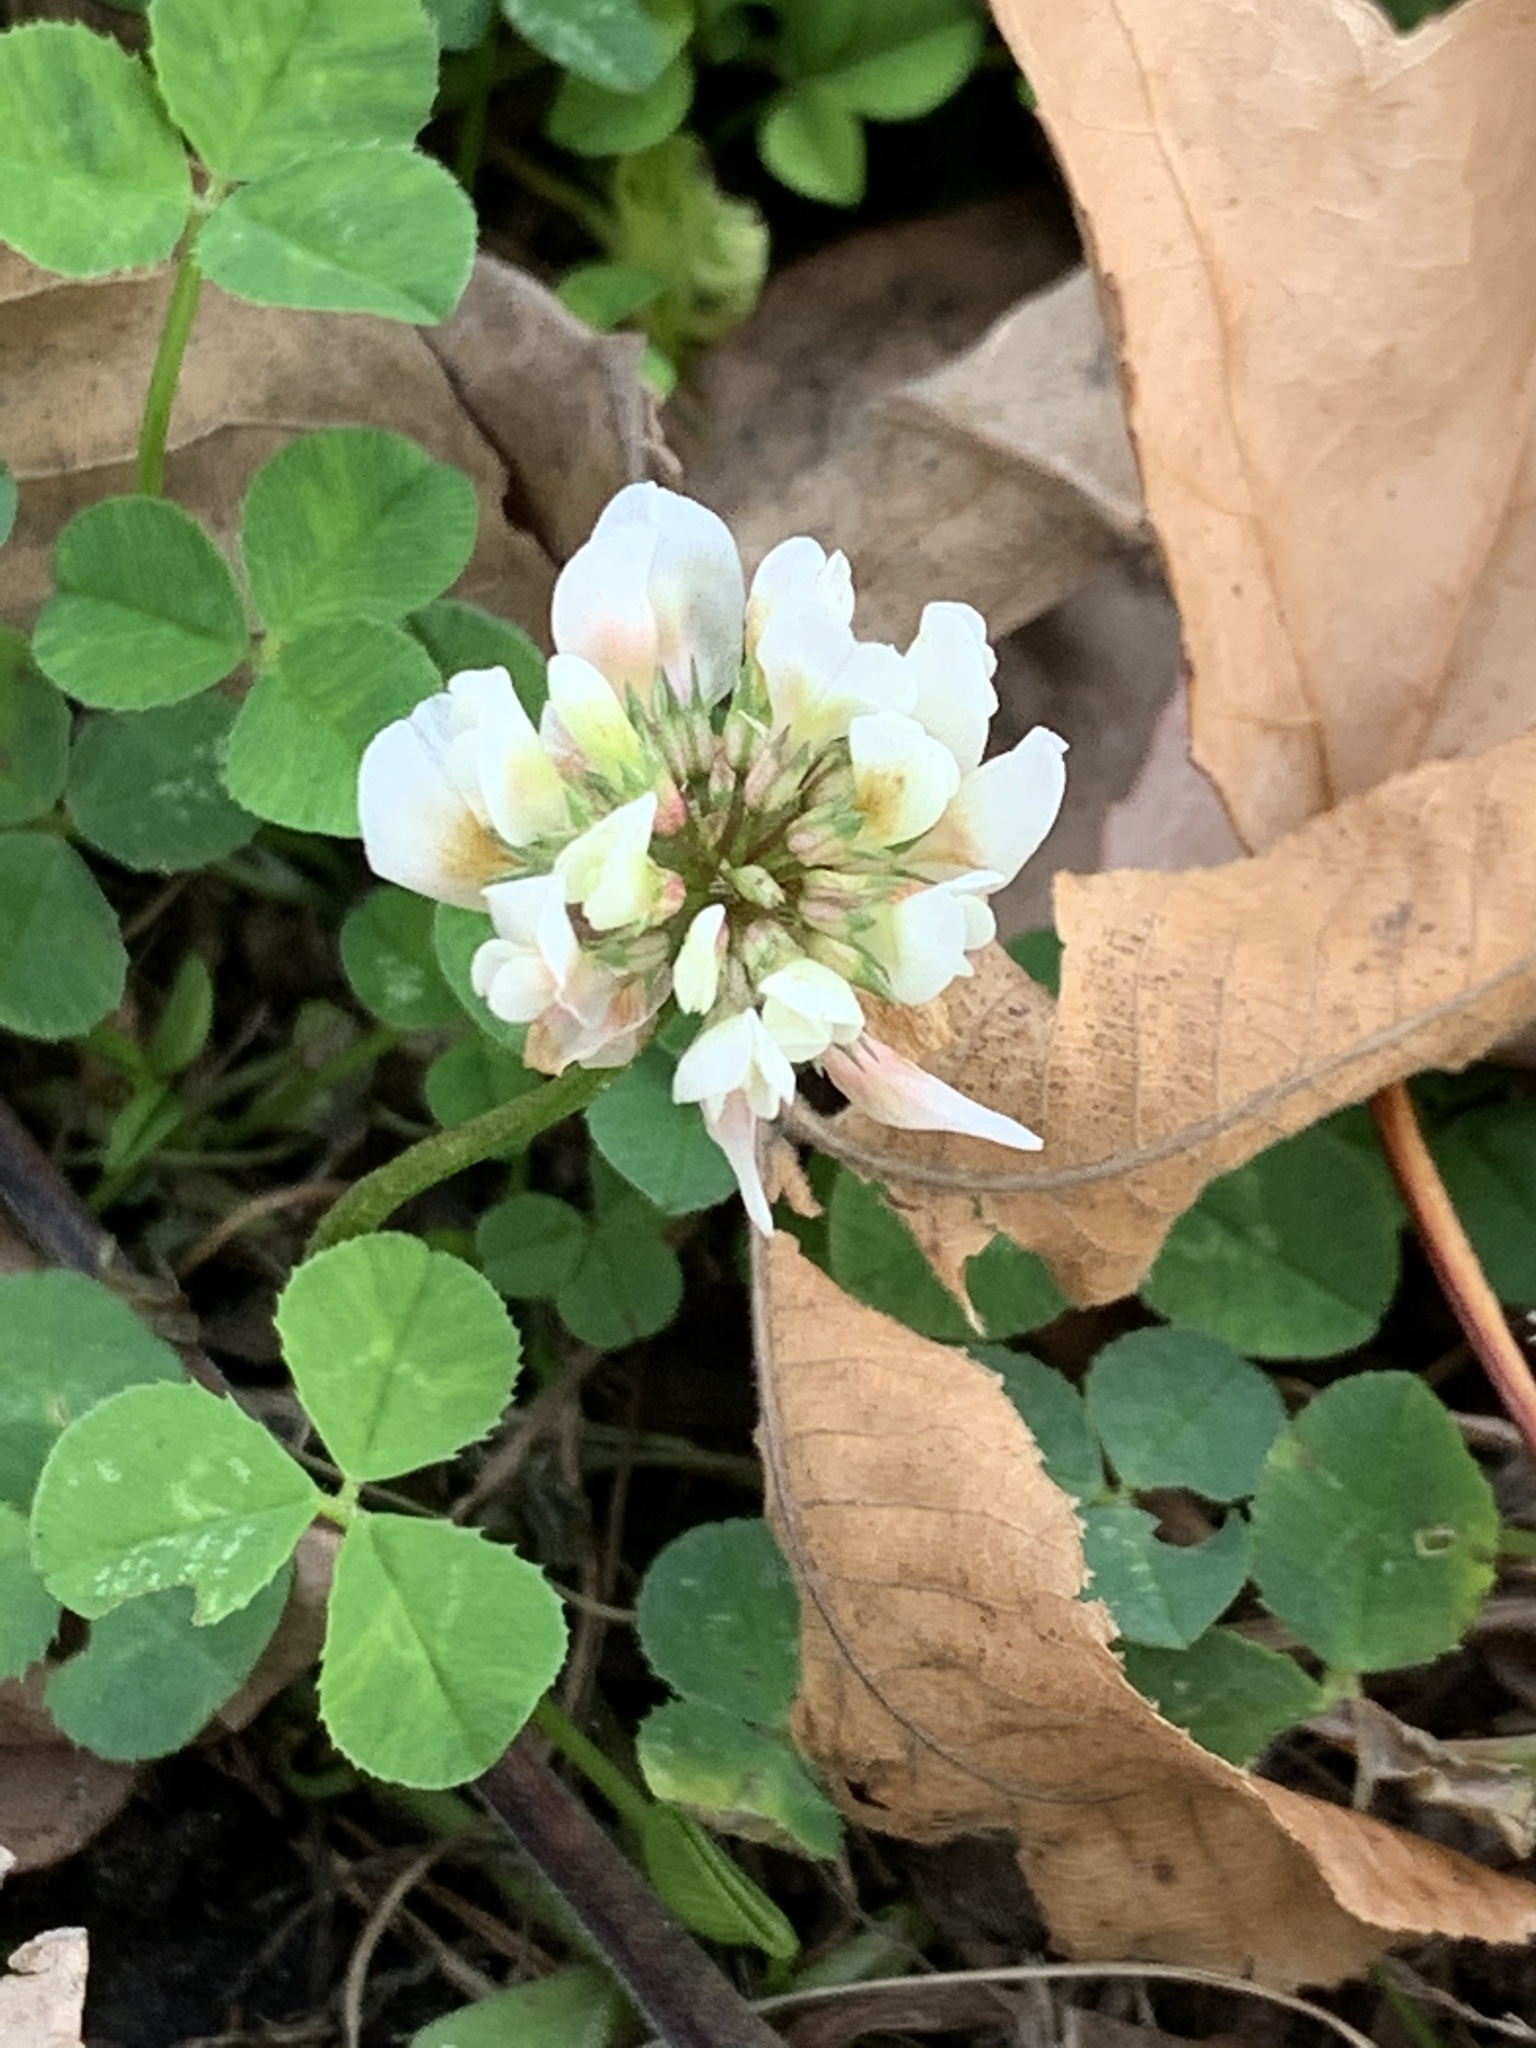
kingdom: Plantae
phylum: Tracheophyta
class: Magnoliopsida
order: Fabales
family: Fabaceae
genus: Trifolium
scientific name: Trifolium repens
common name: White clover
